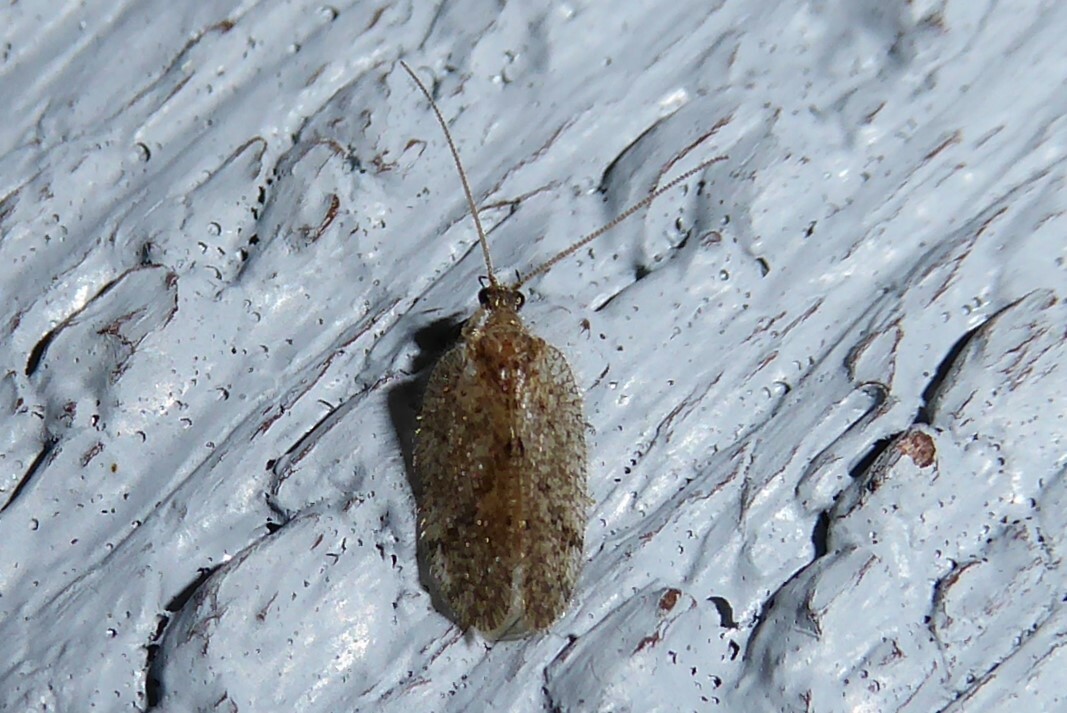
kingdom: Animalia
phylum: Arthropoda
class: Insecta
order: Neuroptera
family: Hemerobiidae
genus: Psectra
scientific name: Psectra nakaharai
